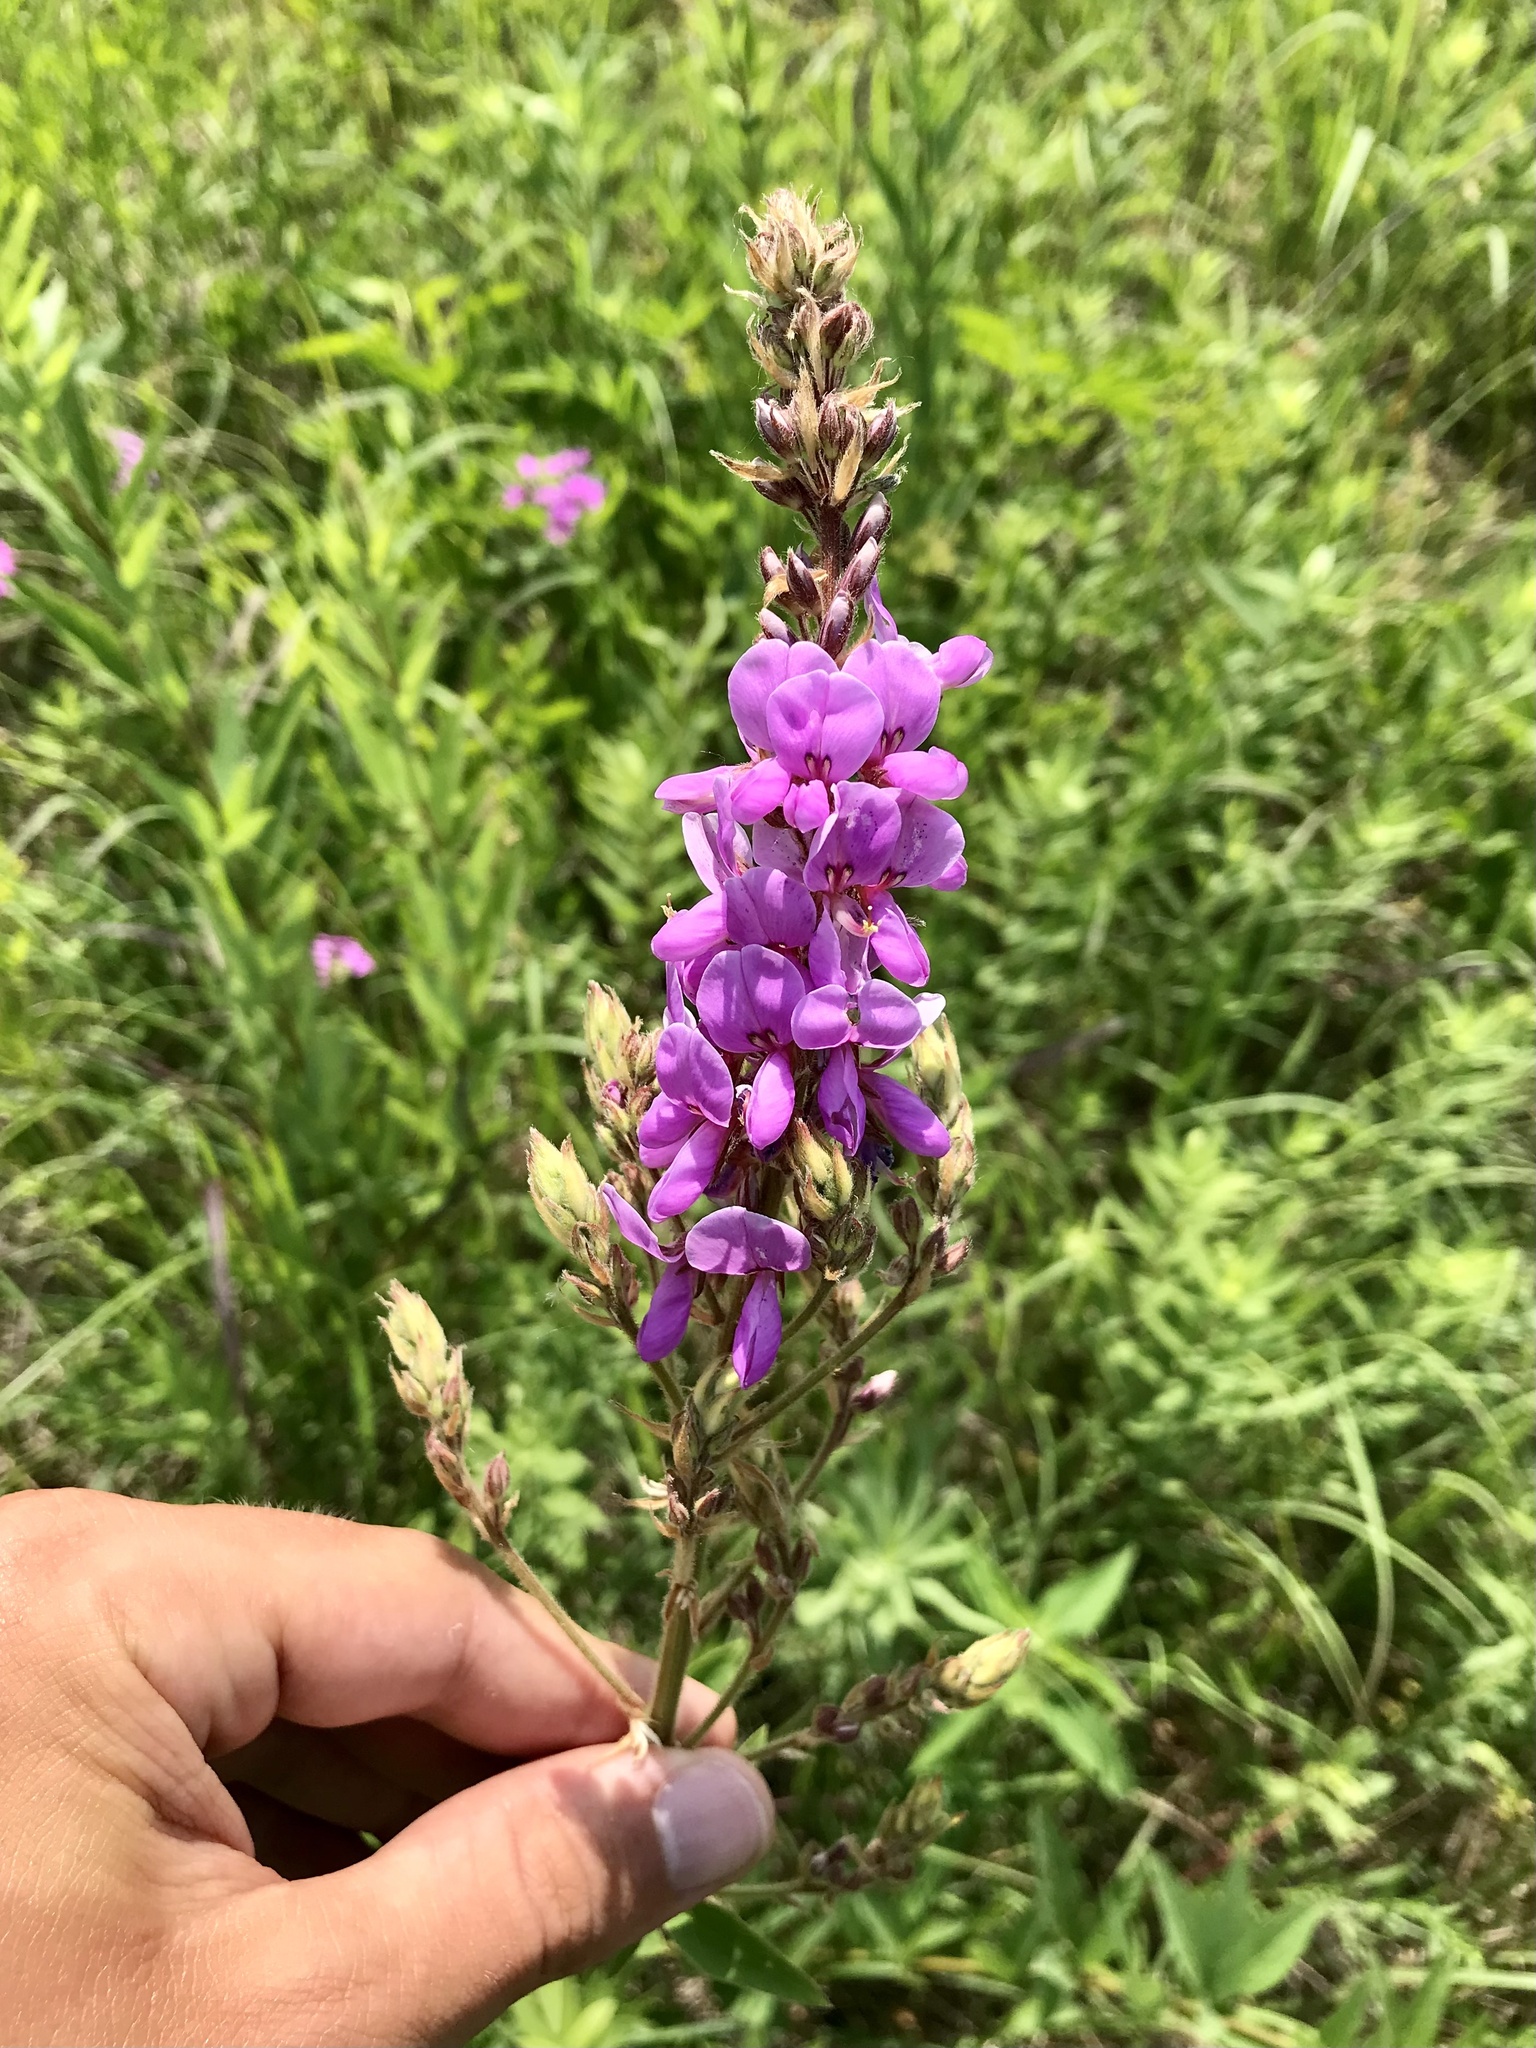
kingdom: Plantae
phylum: Tracheophyta
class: Magnoliopsida
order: Fabales
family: Fabaceae
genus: Desmodium
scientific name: Desmodium canadense
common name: Canada tick-trefoil
